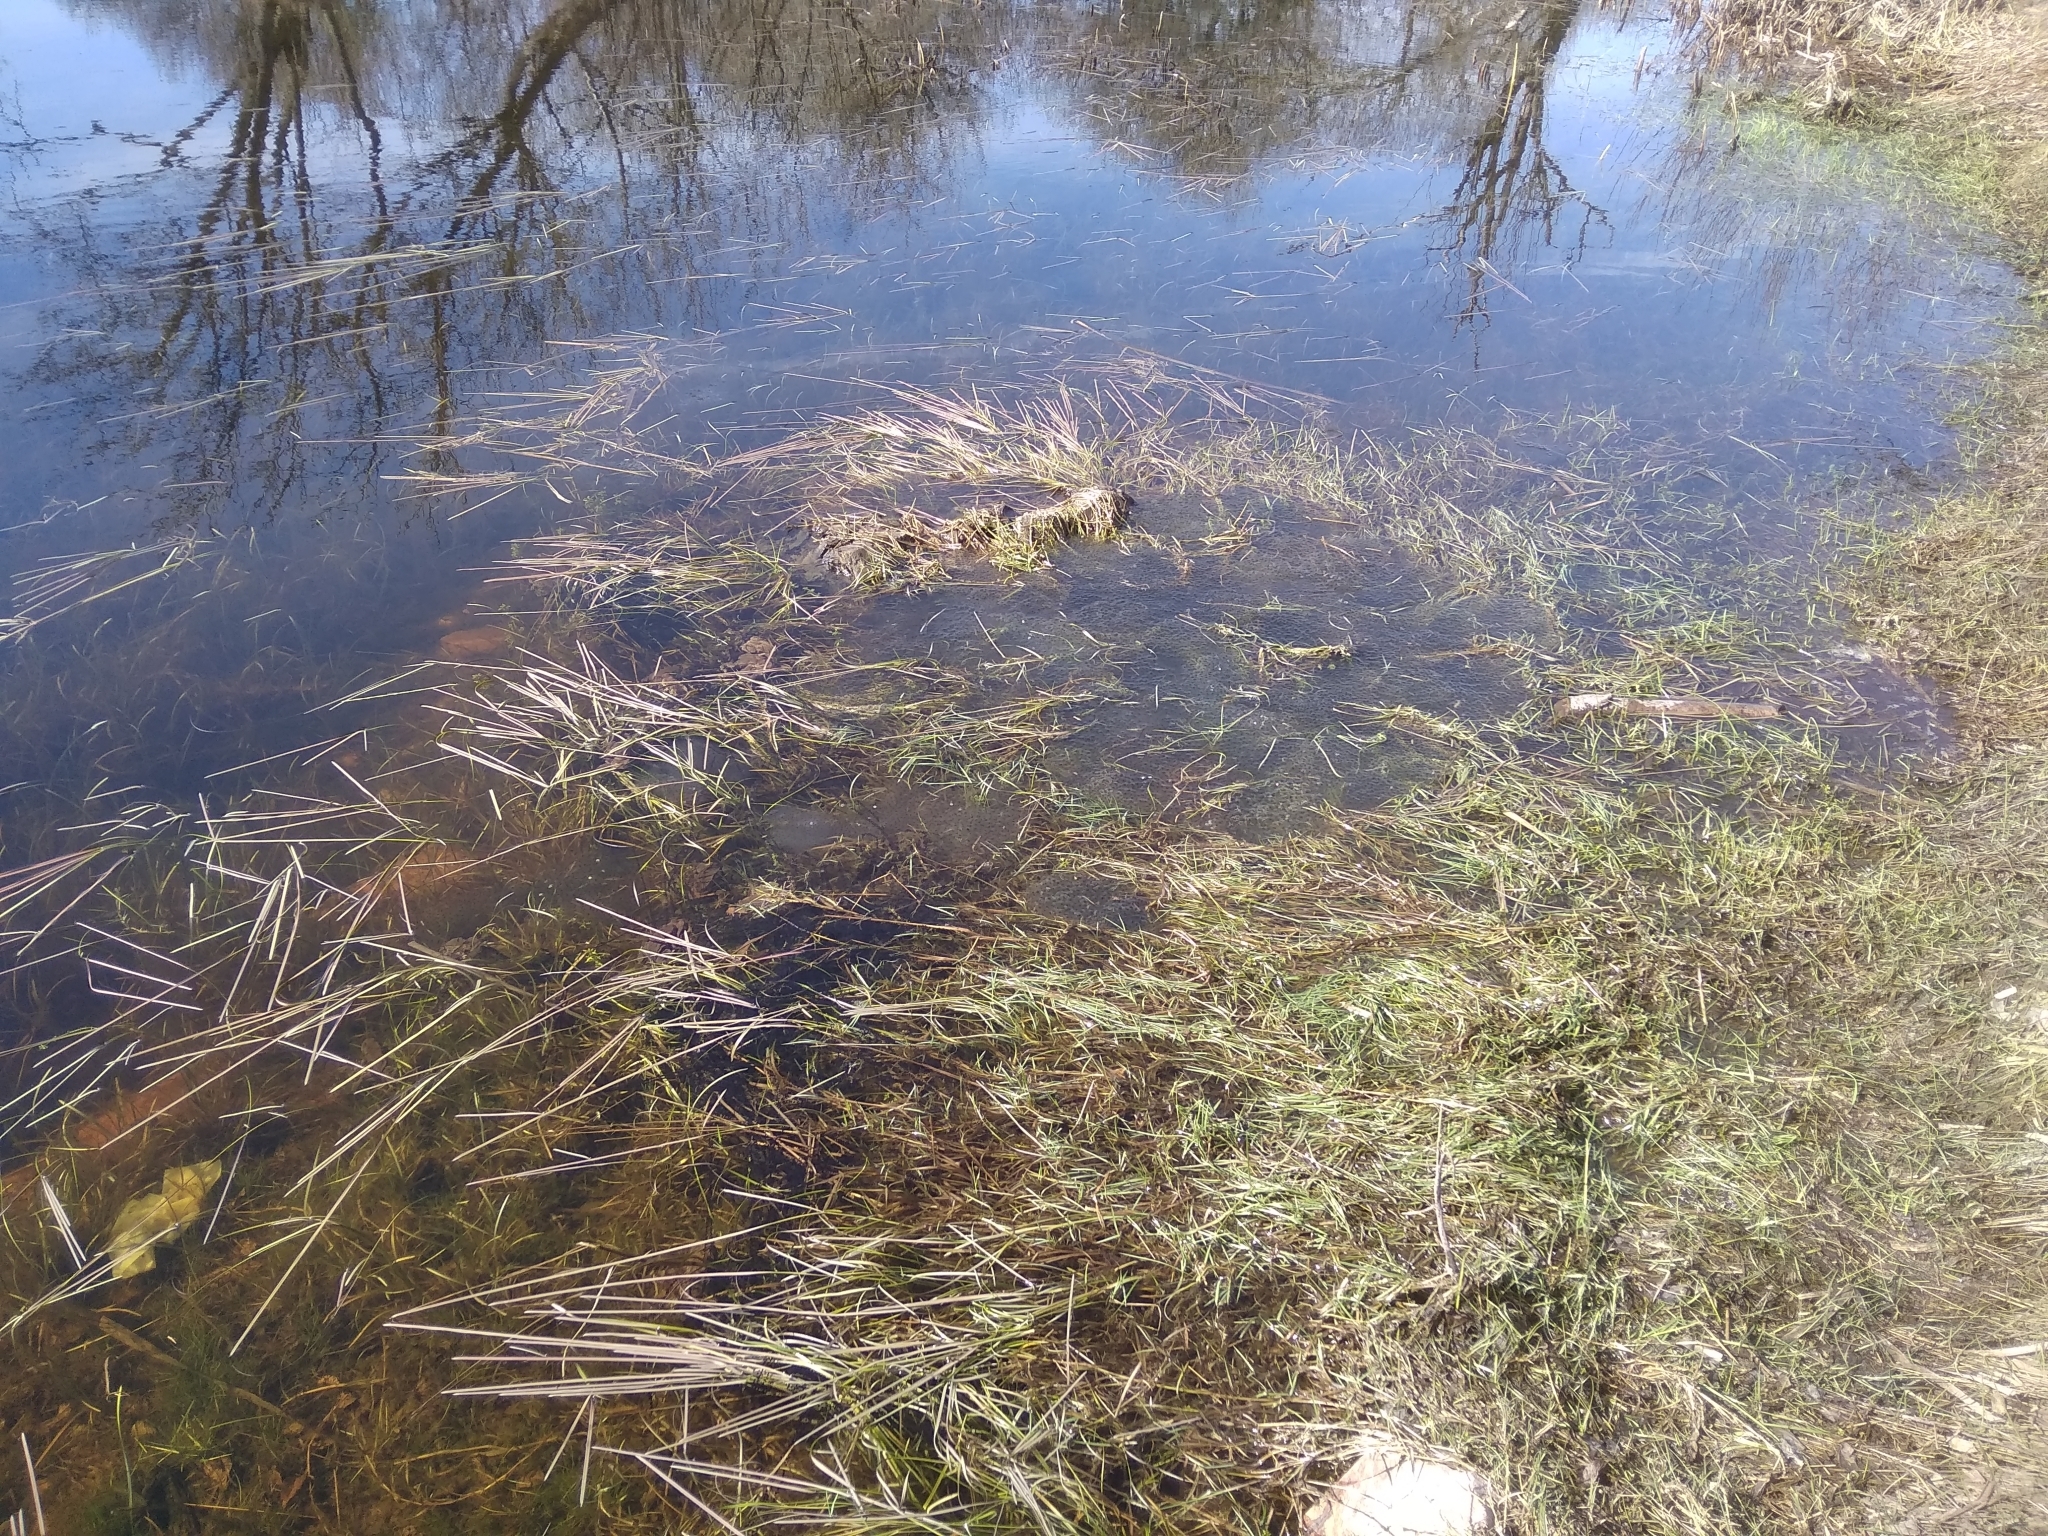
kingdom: Animalia
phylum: Chordata
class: Amphibia
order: Anura
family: Ranidae
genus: Rana
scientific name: Rana temporaria
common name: Common frog
